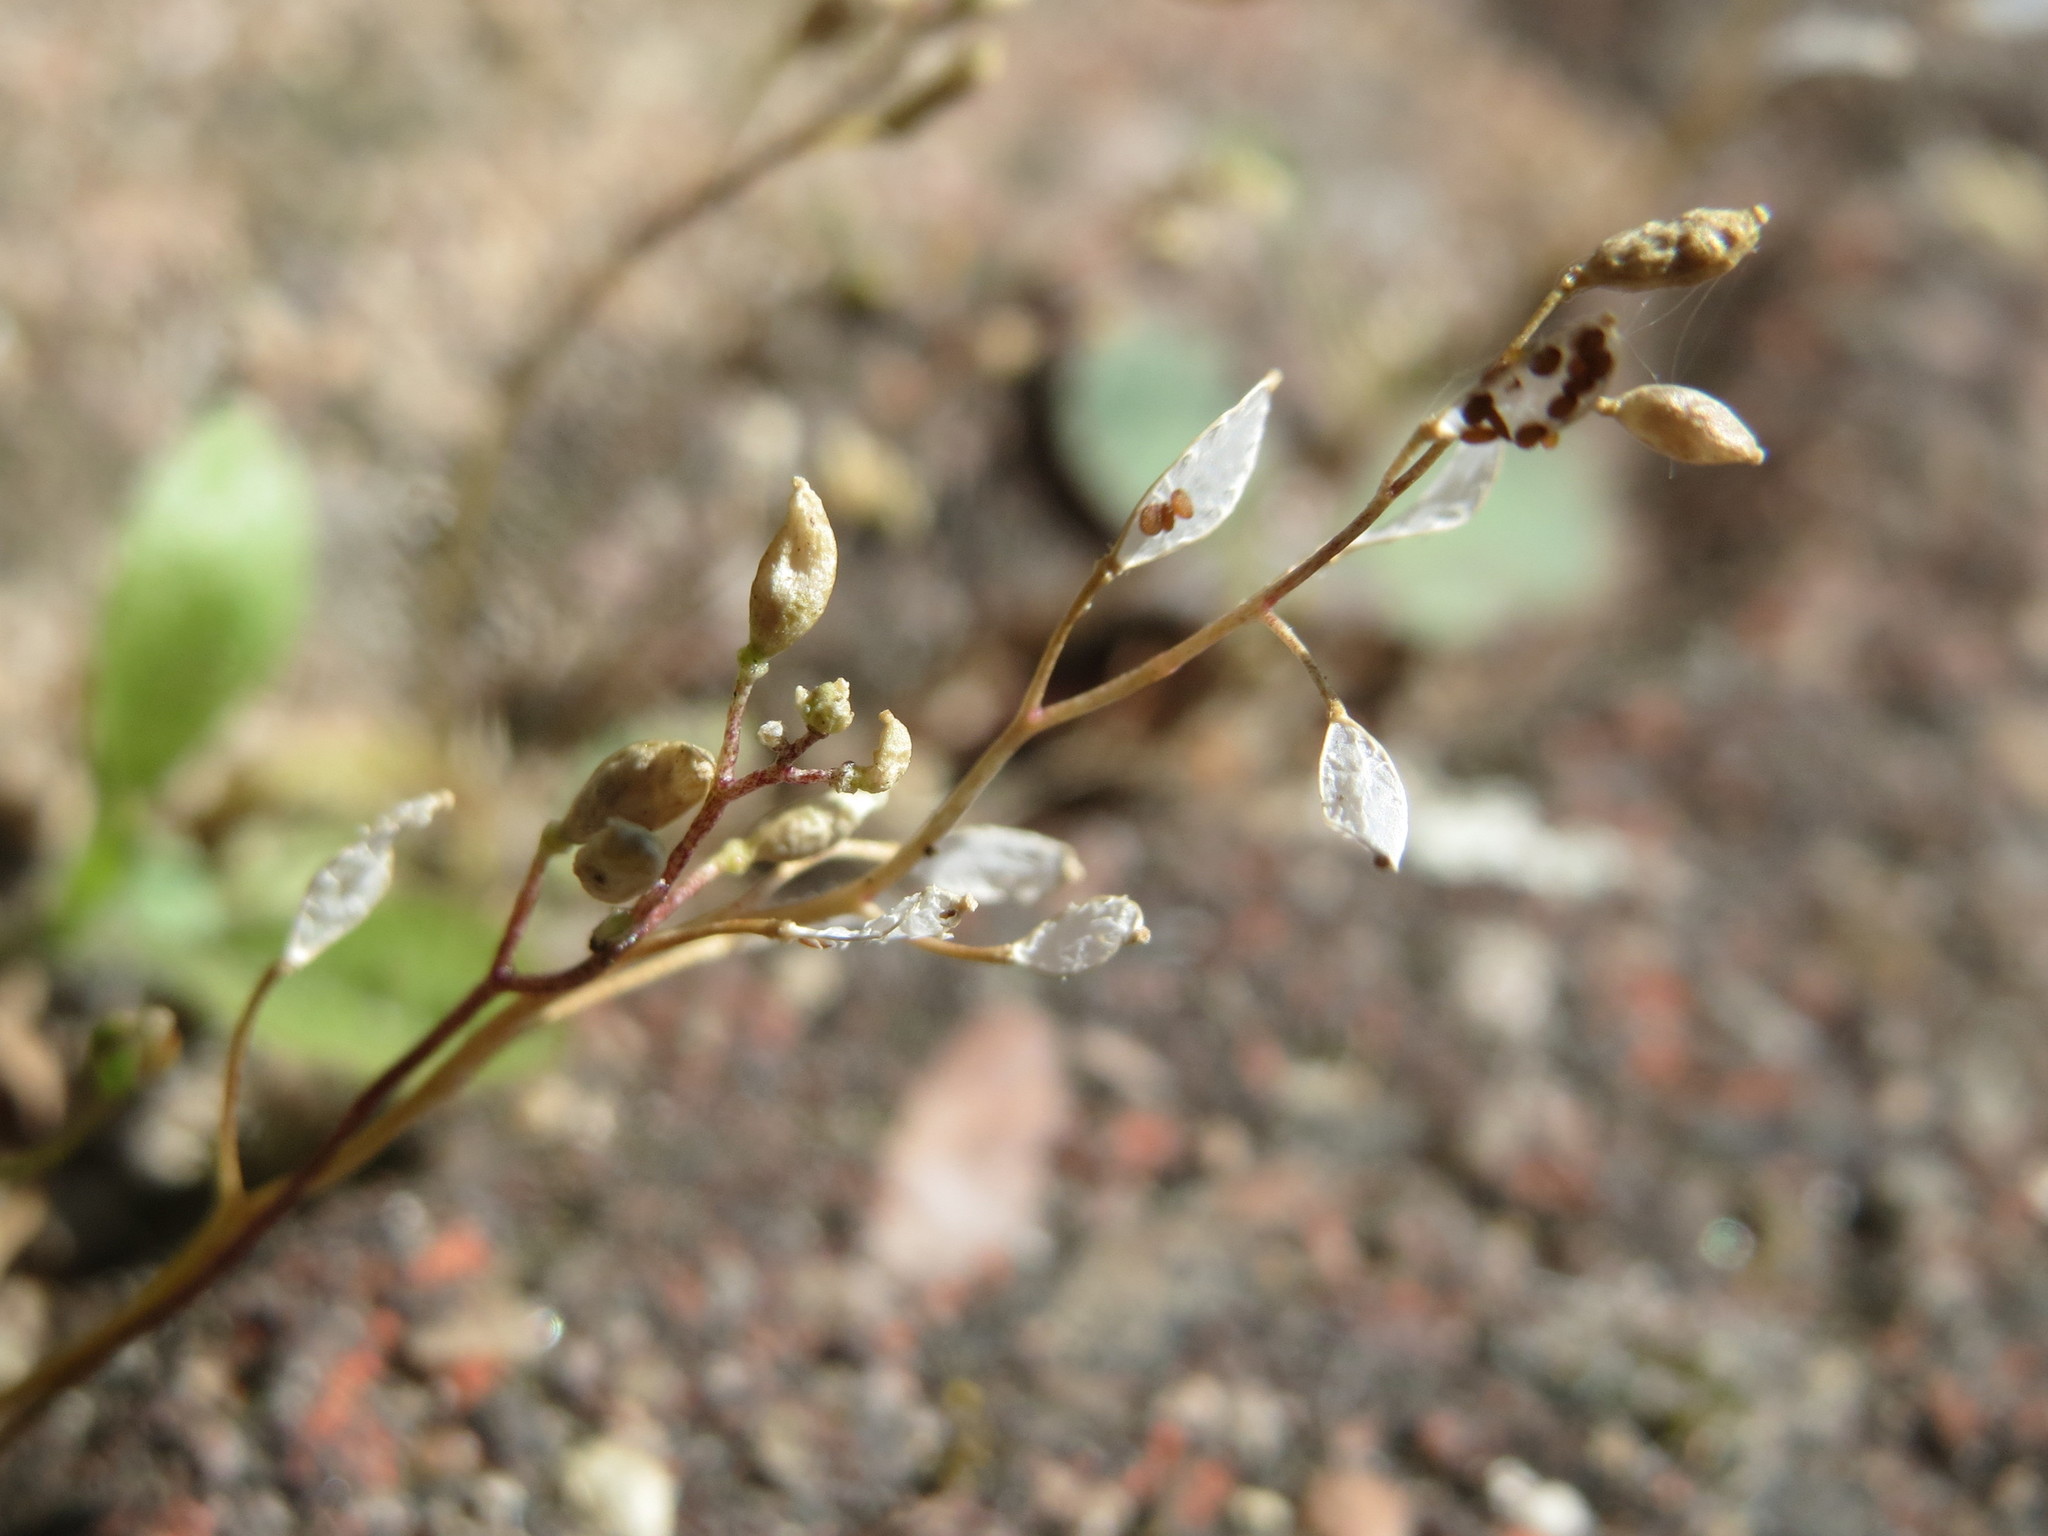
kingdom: Plantae
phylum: Tracheophyta
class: Magnoliopsida
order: Brassicales
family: Brassicaceae
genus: Draba
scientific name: Draba verna
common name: Spring draba
